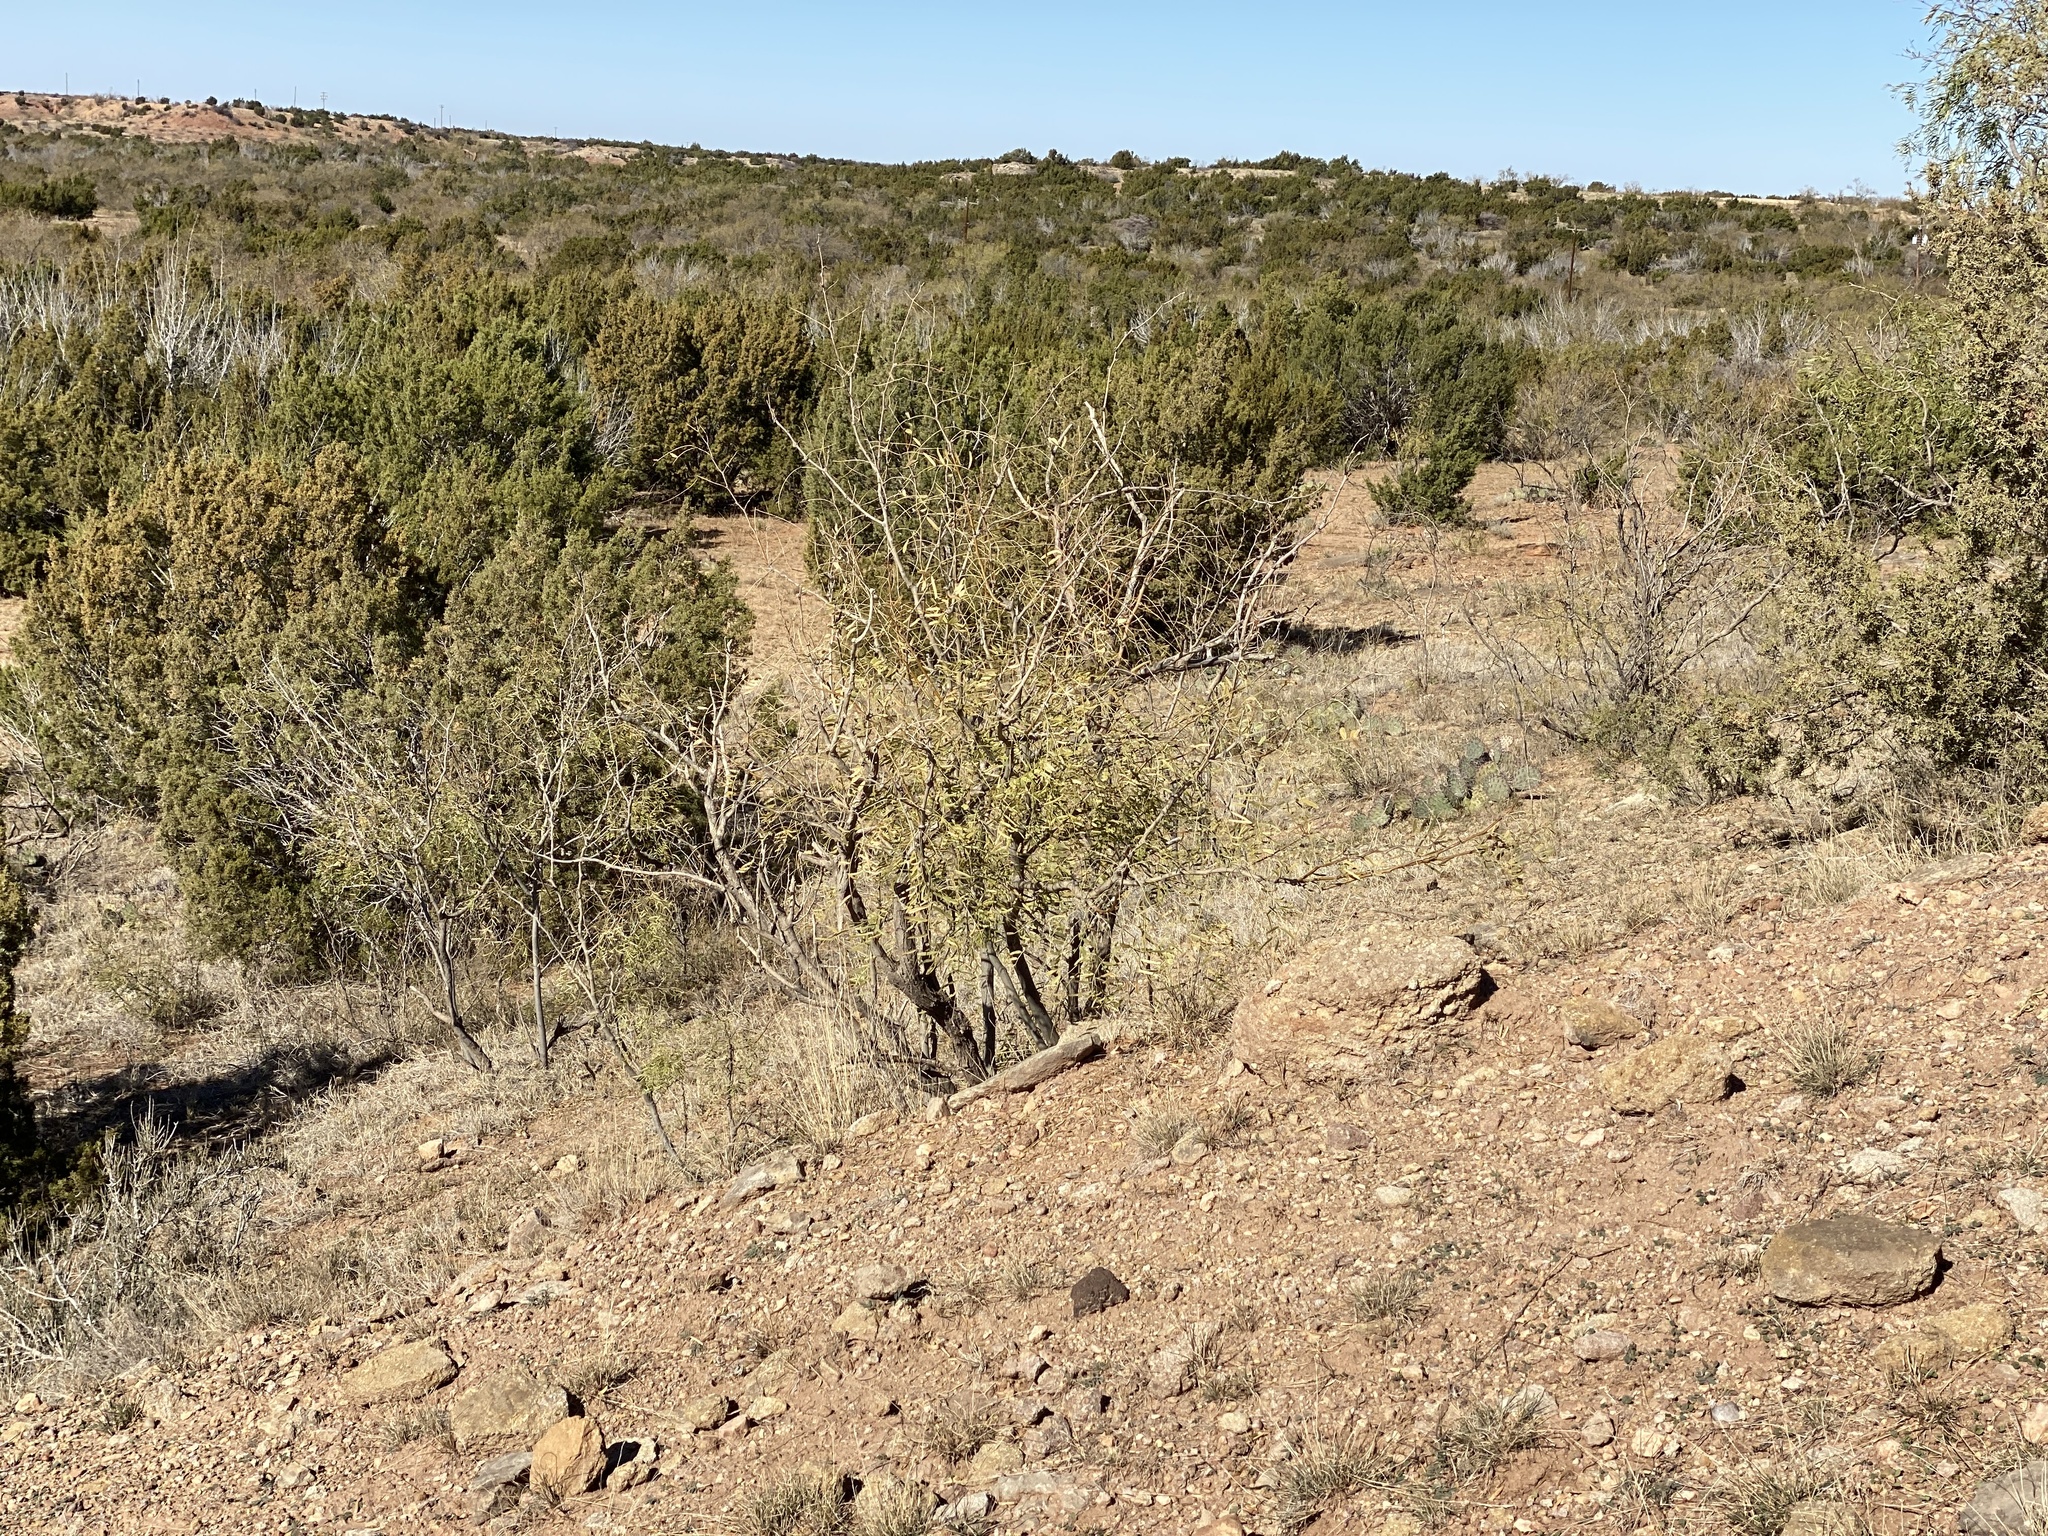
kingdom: Plantae
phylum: Tracheophyta
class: Magnoliopsida
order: Fabales
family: Fabaceae
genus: Prosopis
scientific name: Prosopis glandulosa
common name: Honey mesquite
